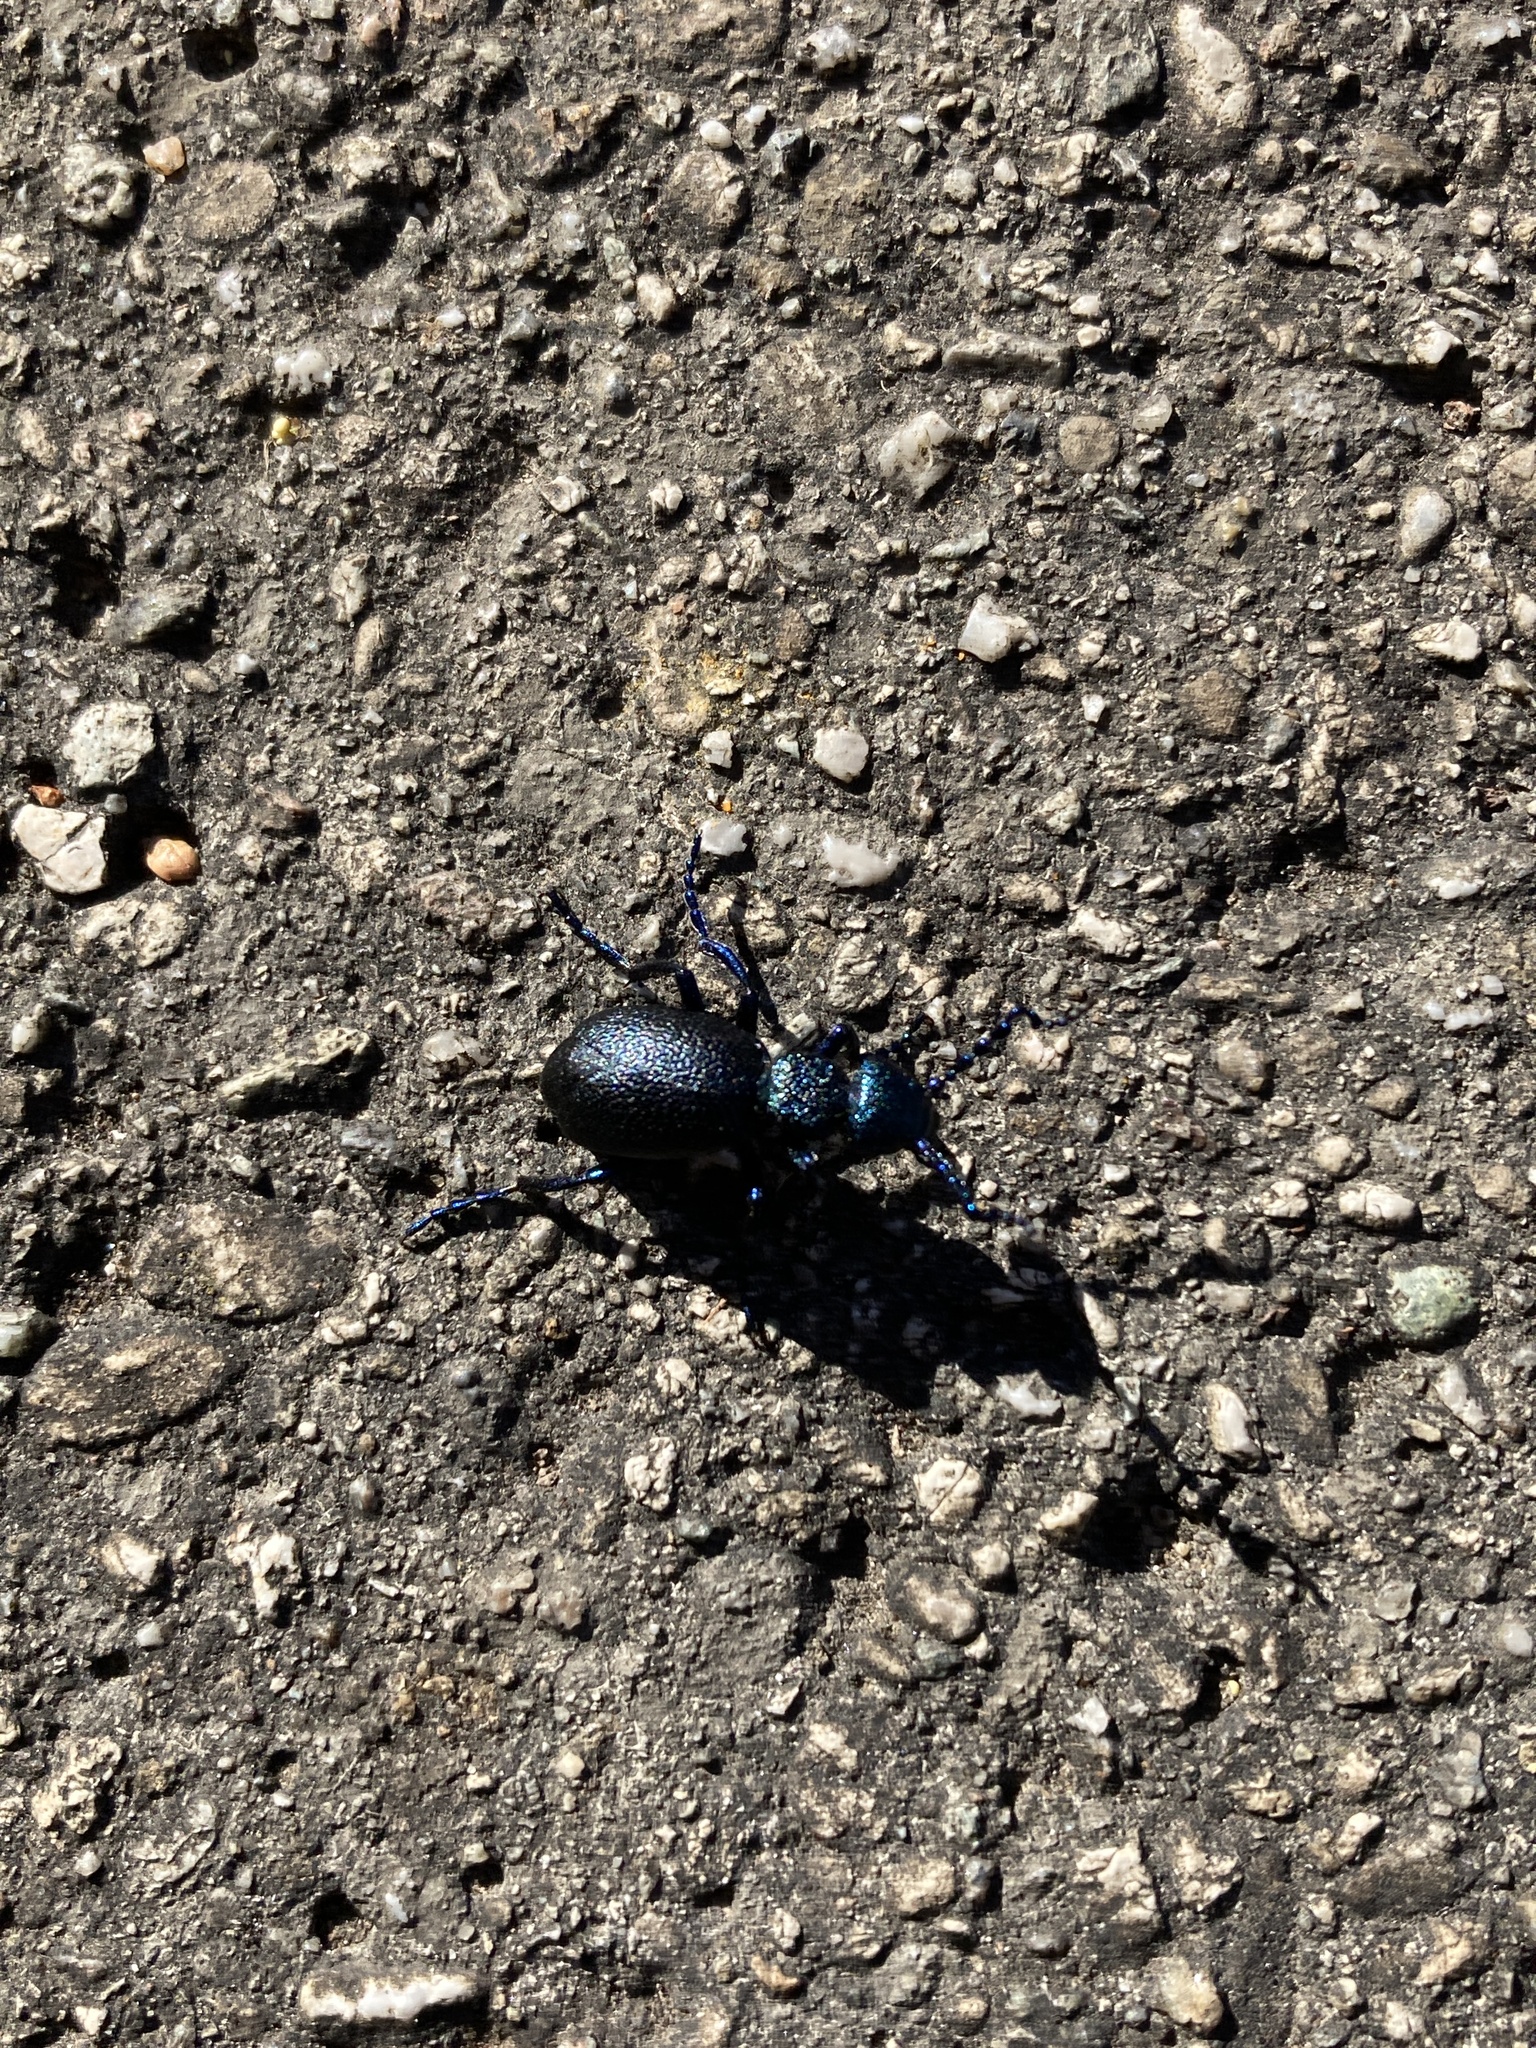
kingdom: Animalia
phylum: Arthropoda
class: Insecta
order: Coleoptera
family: Meloidae
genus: Meloe
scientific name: Meloe proscarabaeus
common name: Black oil-beetle
